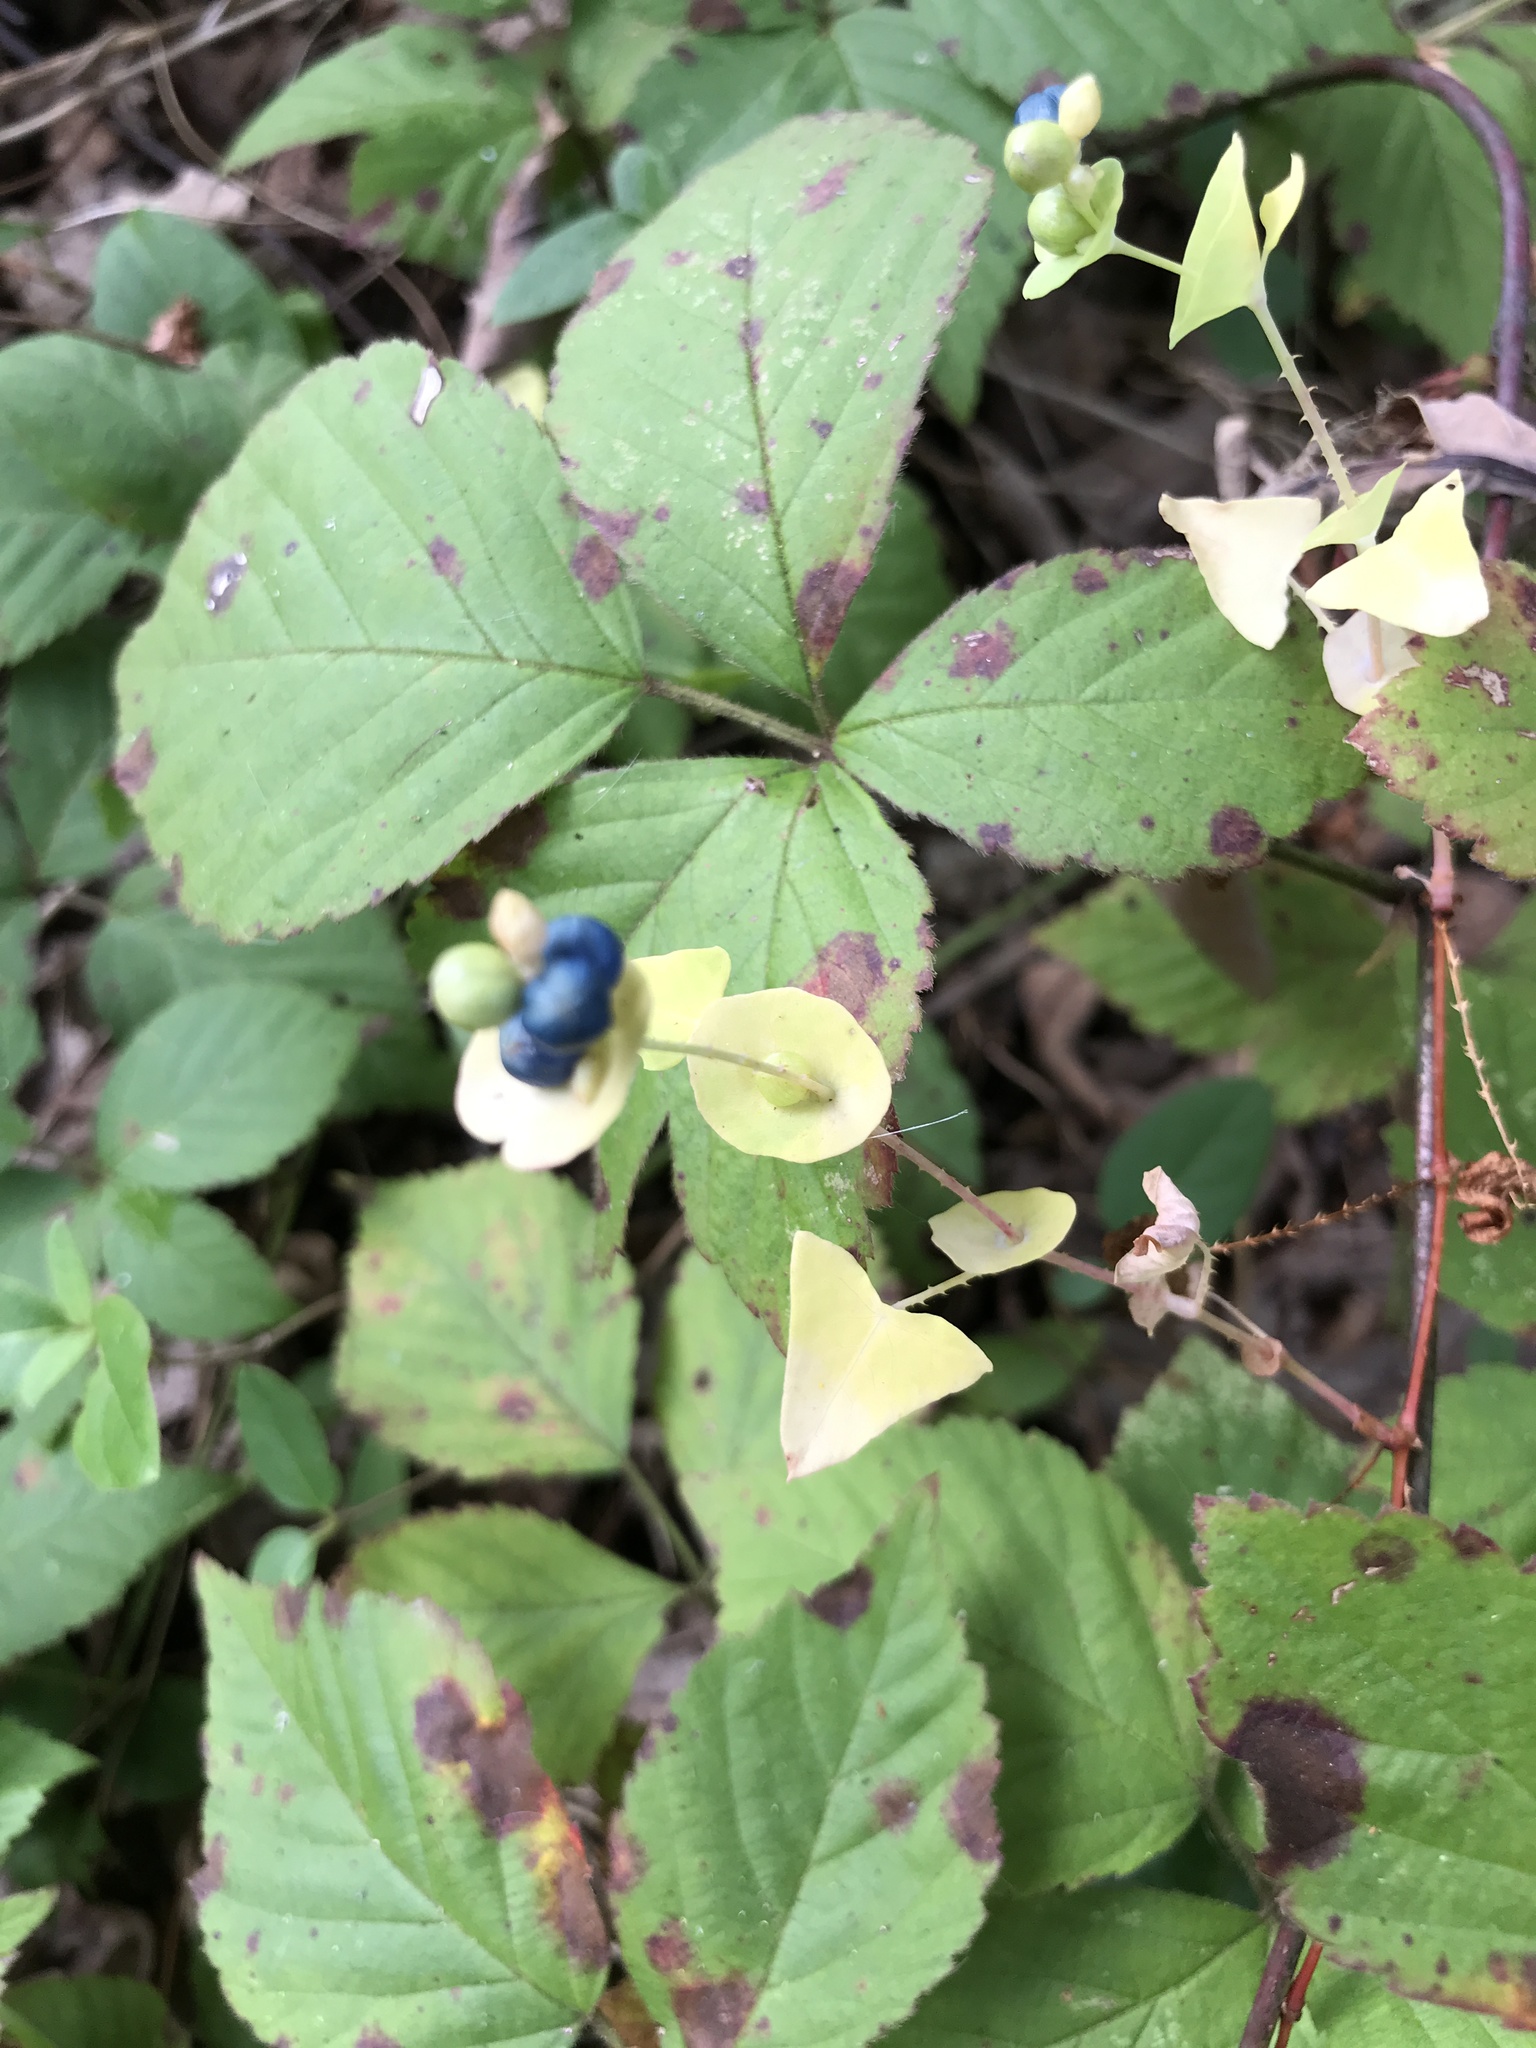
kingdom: Plantae
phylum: Tracheophyta
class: Magnoliopsida
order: Caryophyllales
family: Polygonaceae
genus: Persicaria
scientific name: Persicaria perfoliata
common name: Asiatic tearthumb
